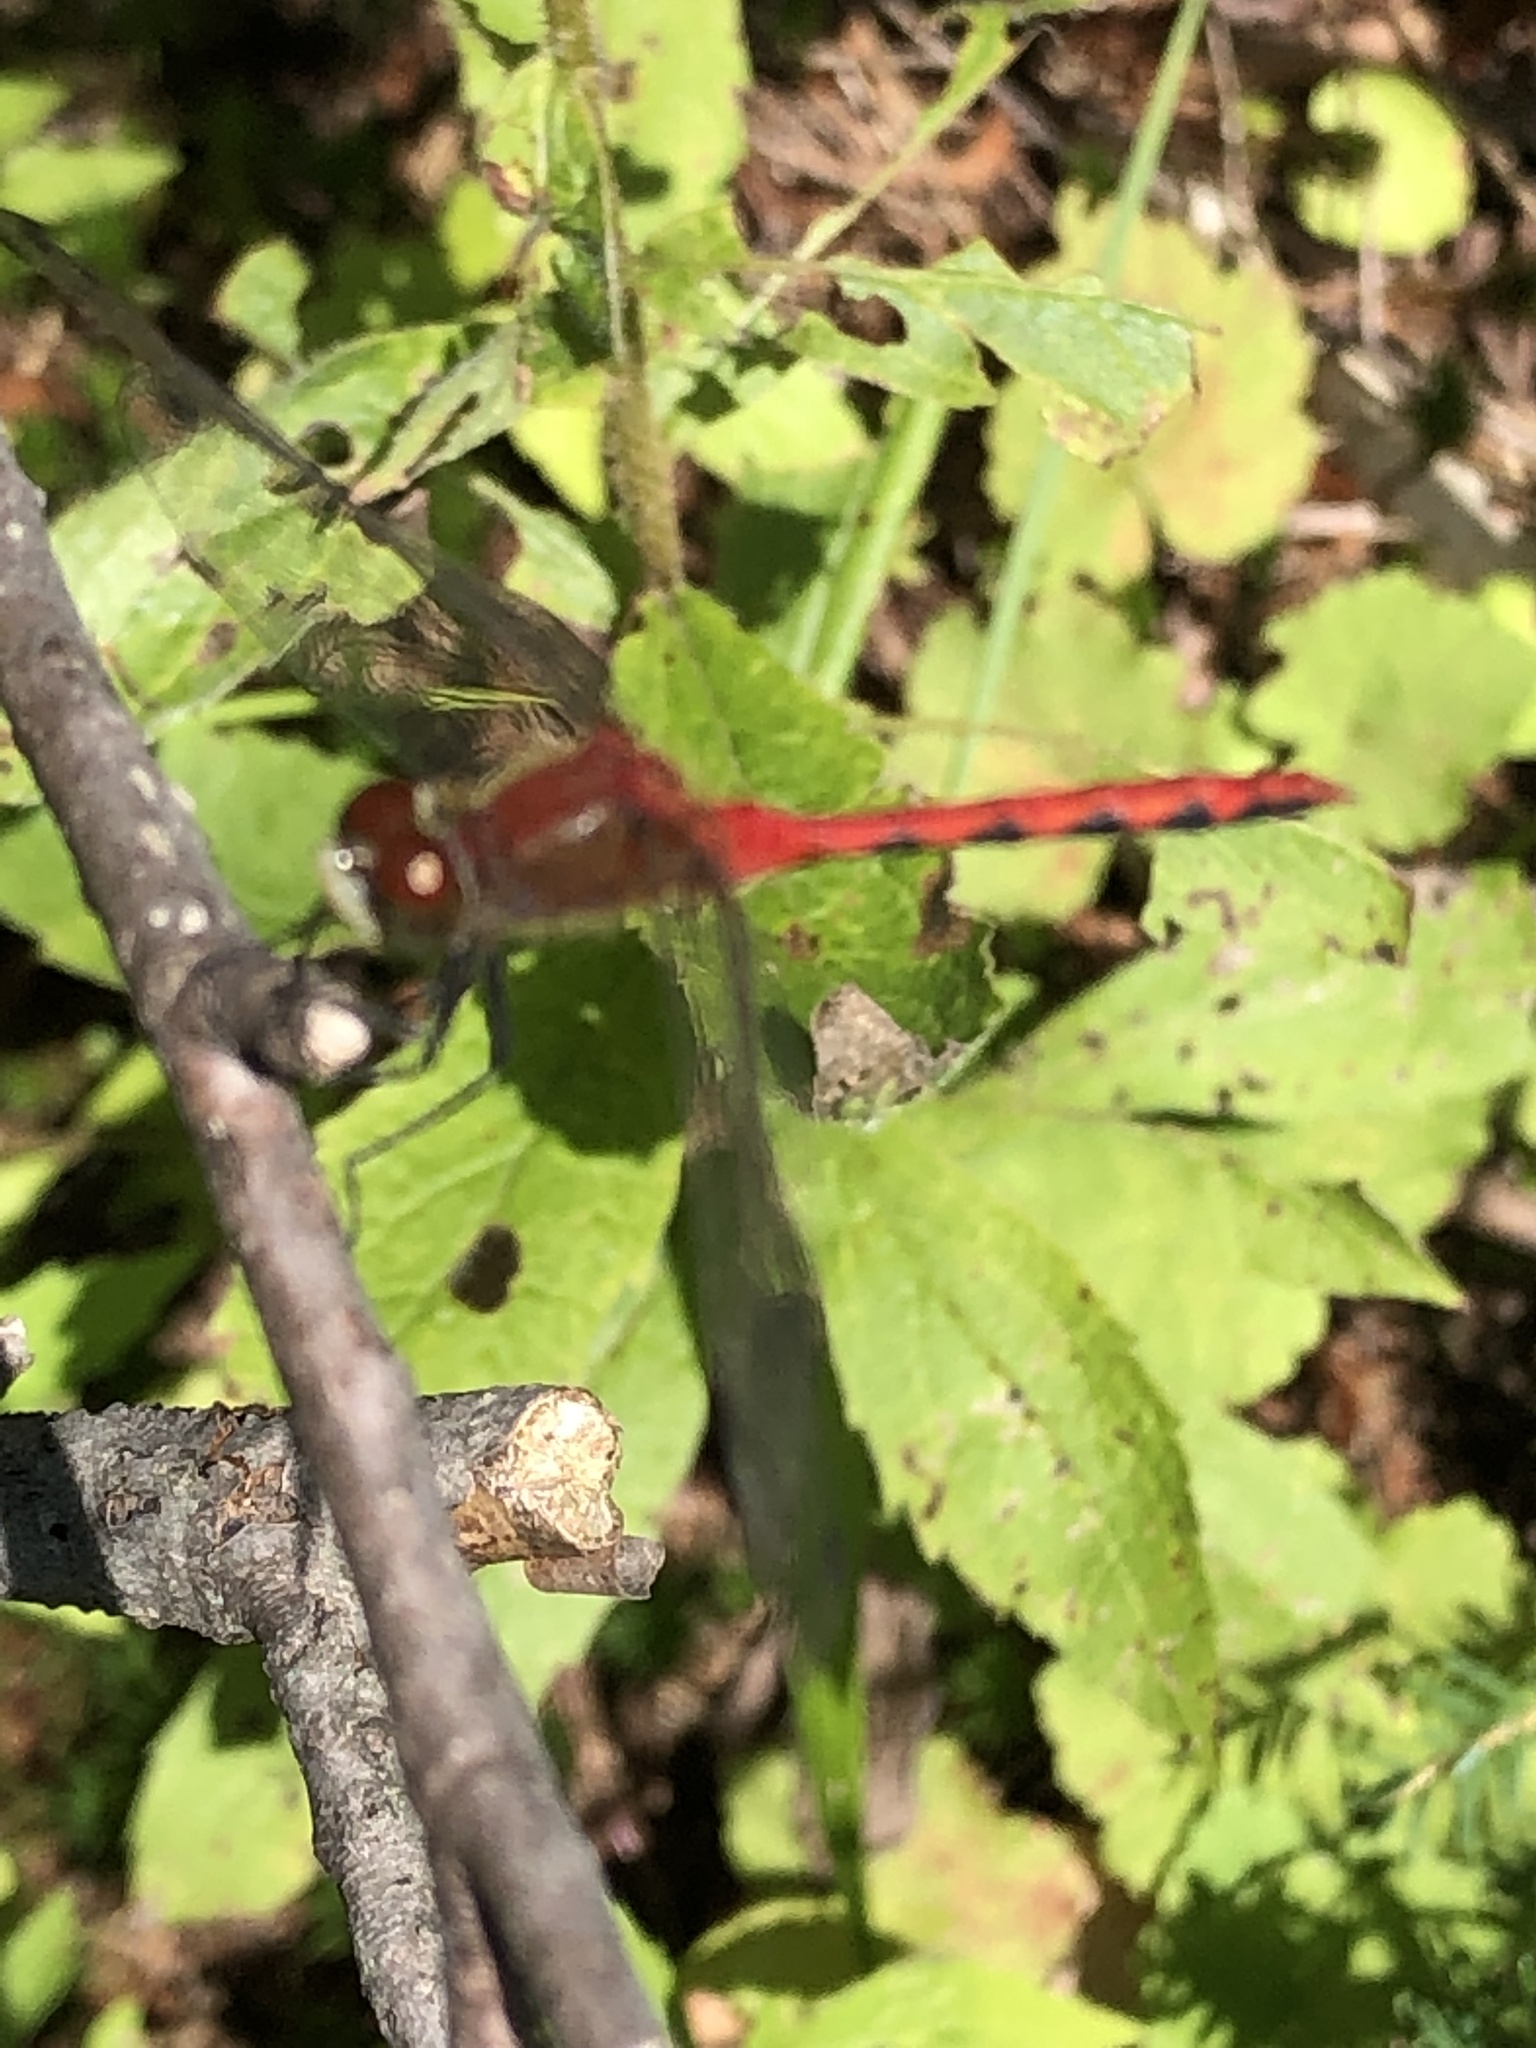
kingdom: Animalia
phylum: Arthropoda
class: Insecta
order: Odonata
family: Libellulidae
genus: Sympetrum
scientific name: Sympetrum obtrusum
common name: White-faced meadowhawk
